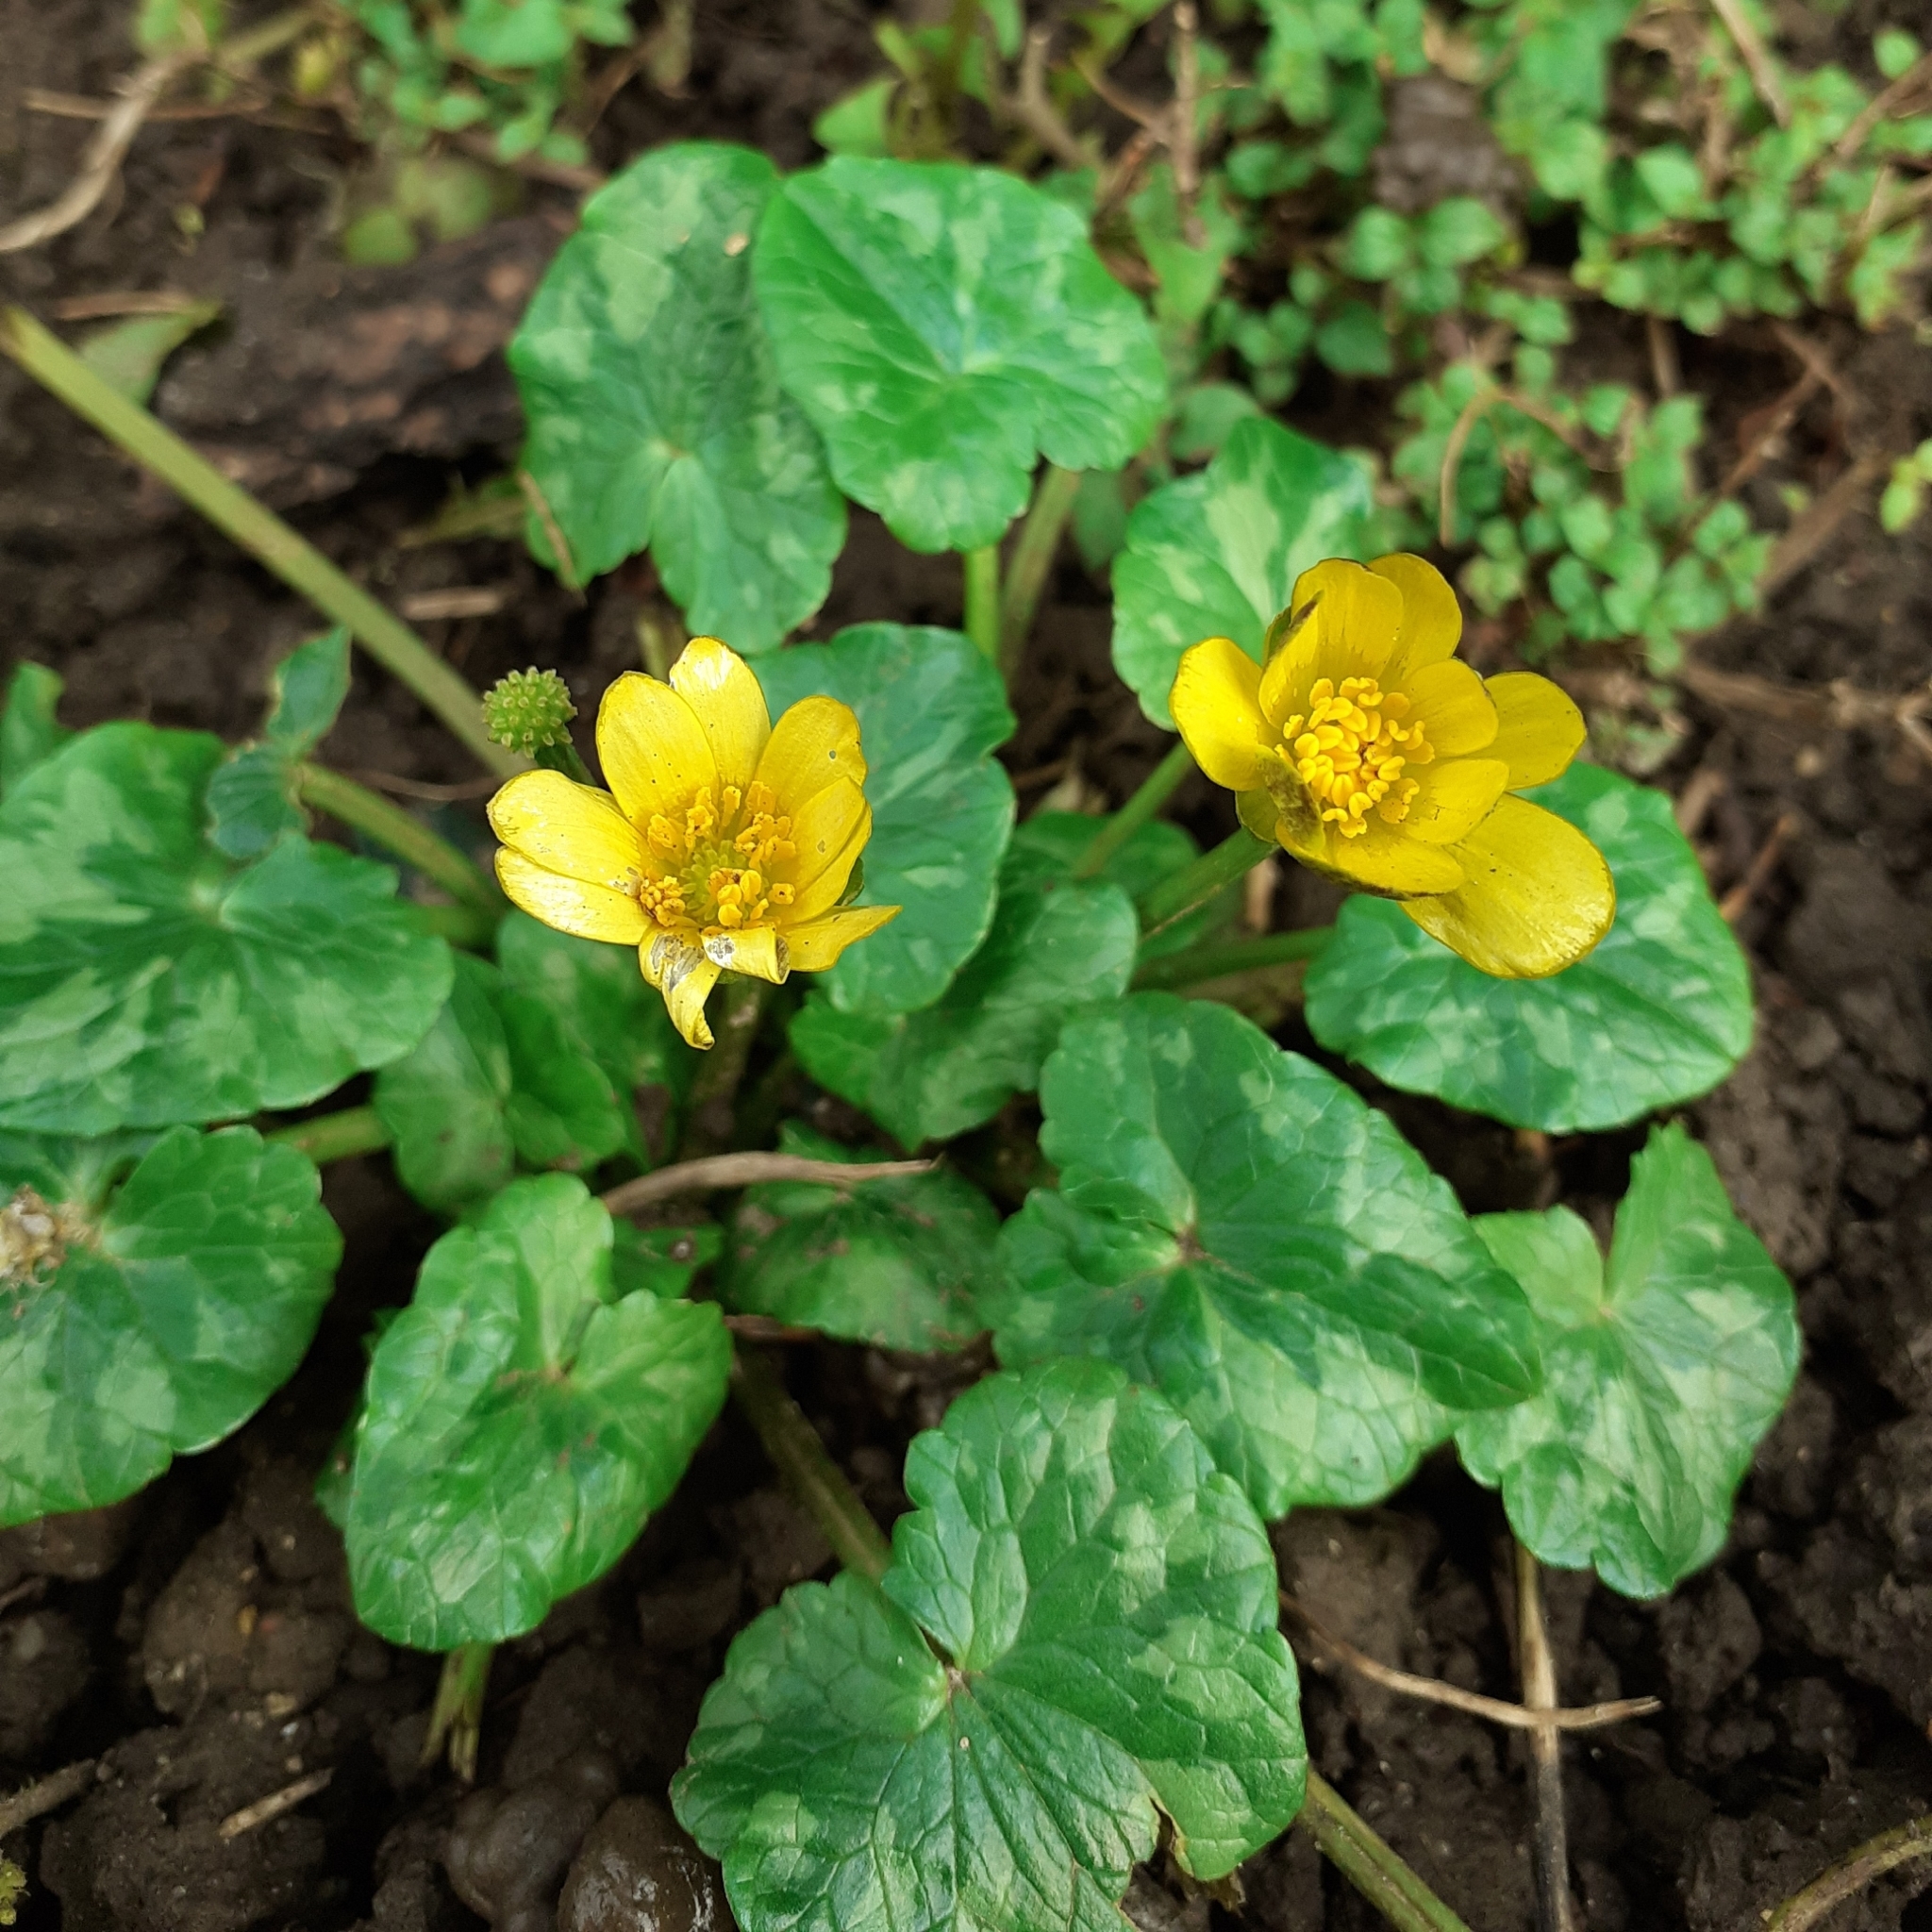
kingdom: Plantae
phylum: Tracheophyta
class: Magnoliopsida
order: Ranunculales
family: Ranunculaceae
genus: Ficaria
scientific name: Ficaria verna
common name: Lesser celandine
